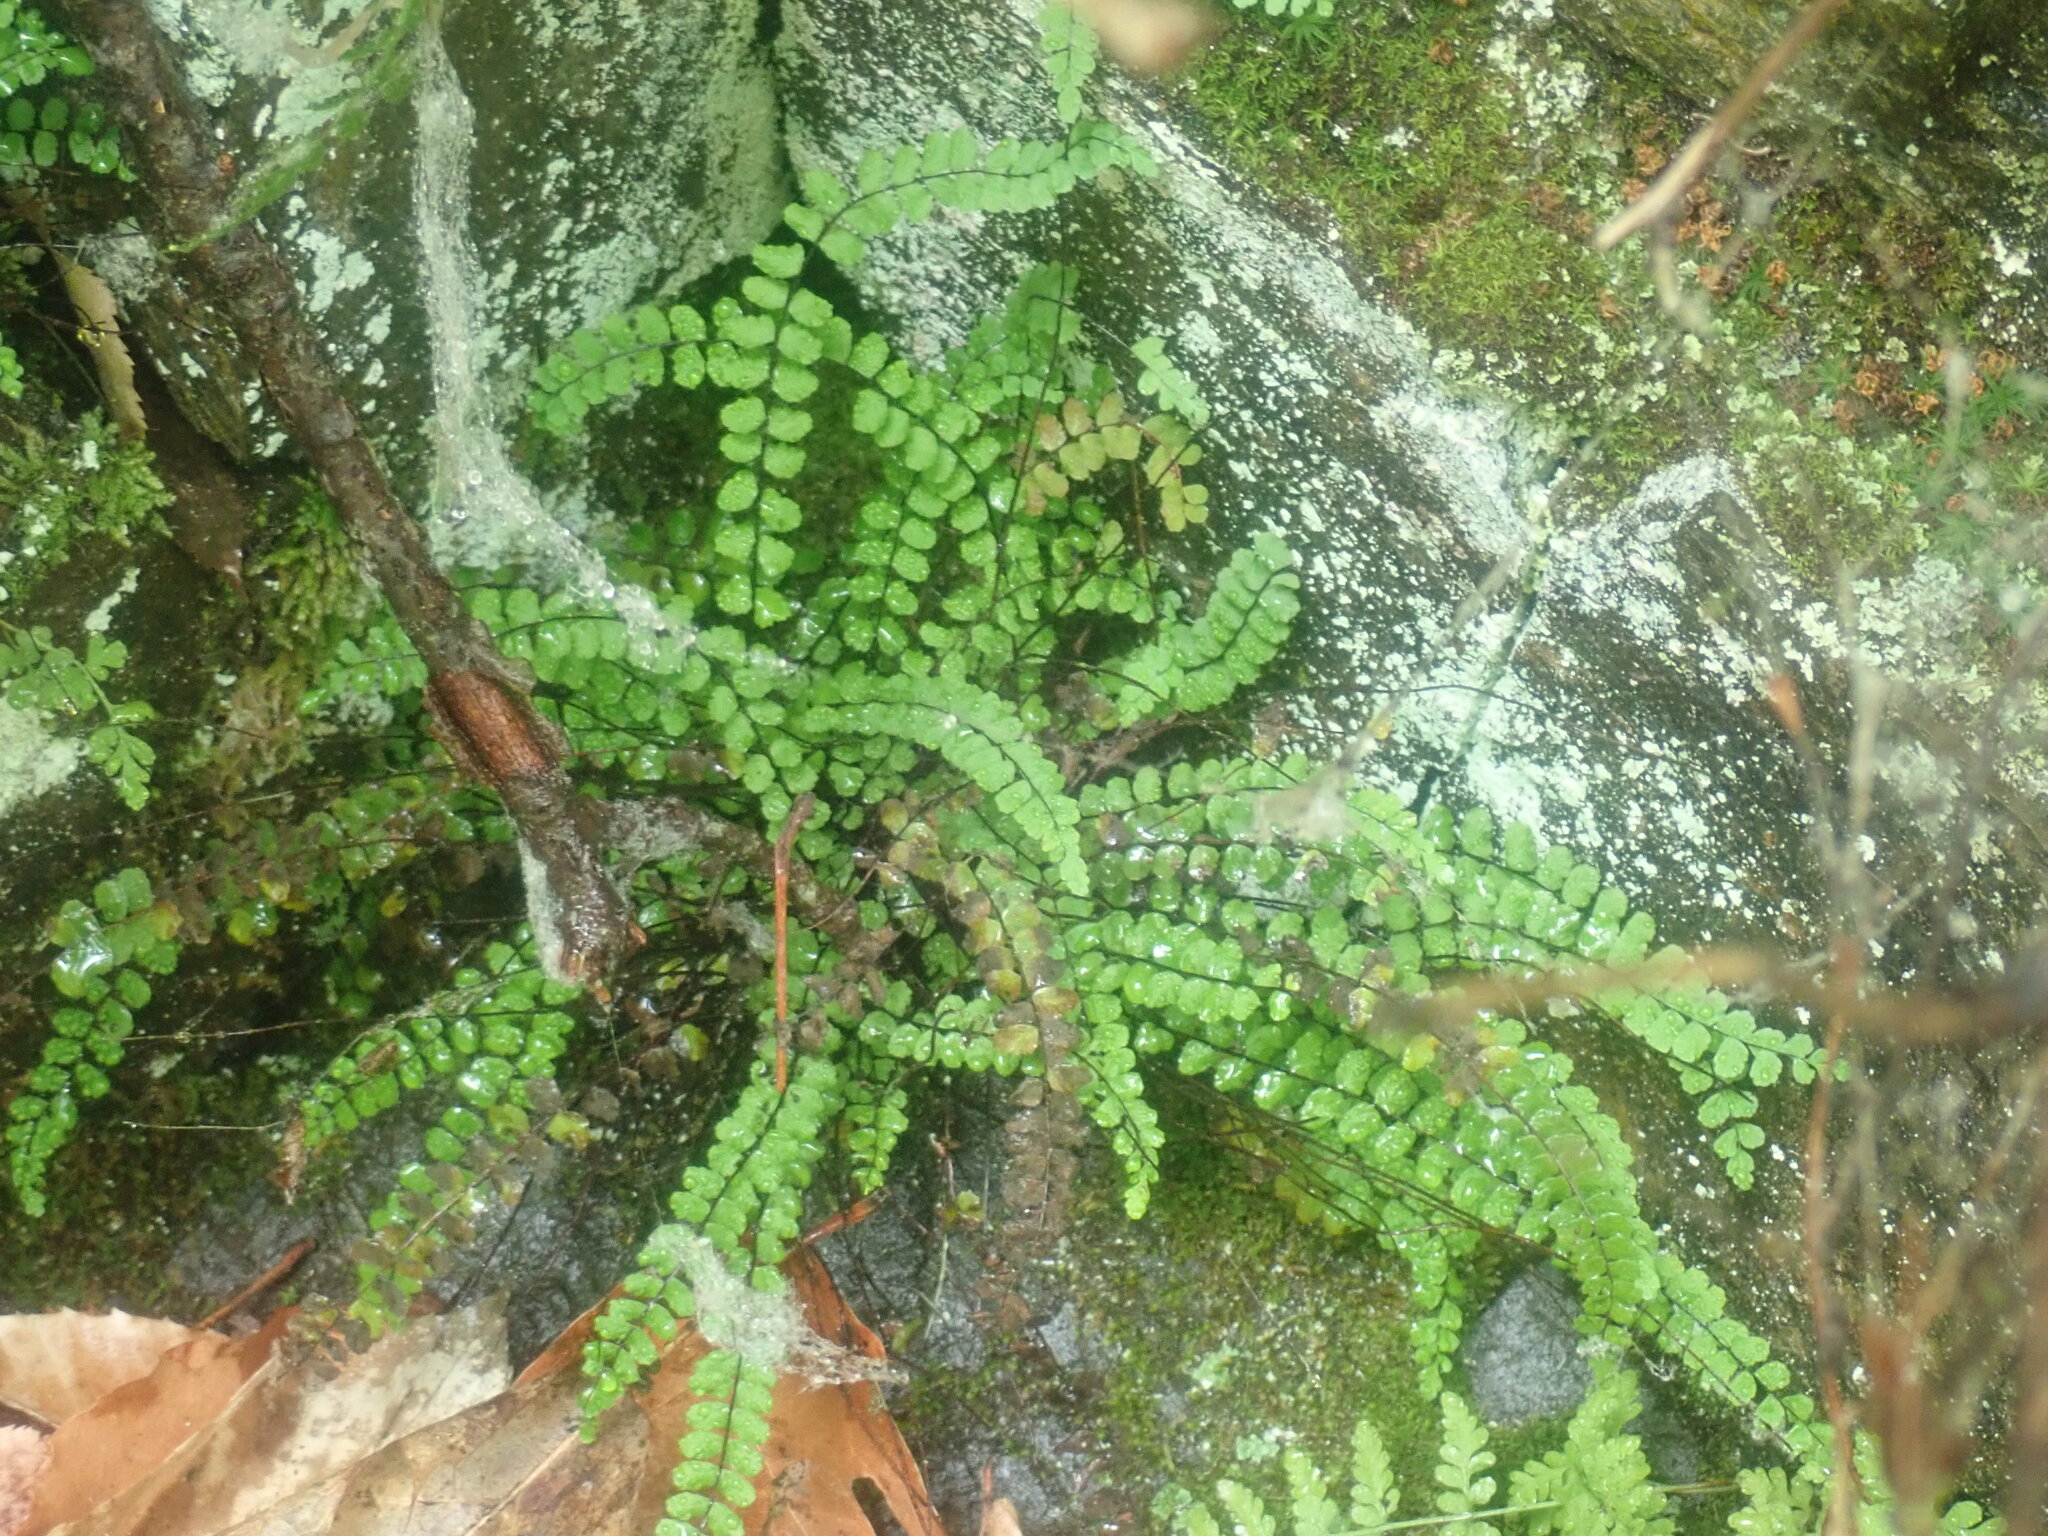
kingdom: Plantae
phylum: Tracheophyta
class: Polypodiopsida
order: Polypodiales
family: Aspleniaceae
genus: Asplenium
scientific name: Asplenium trichomanes
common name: Maidenhair spleenwort
